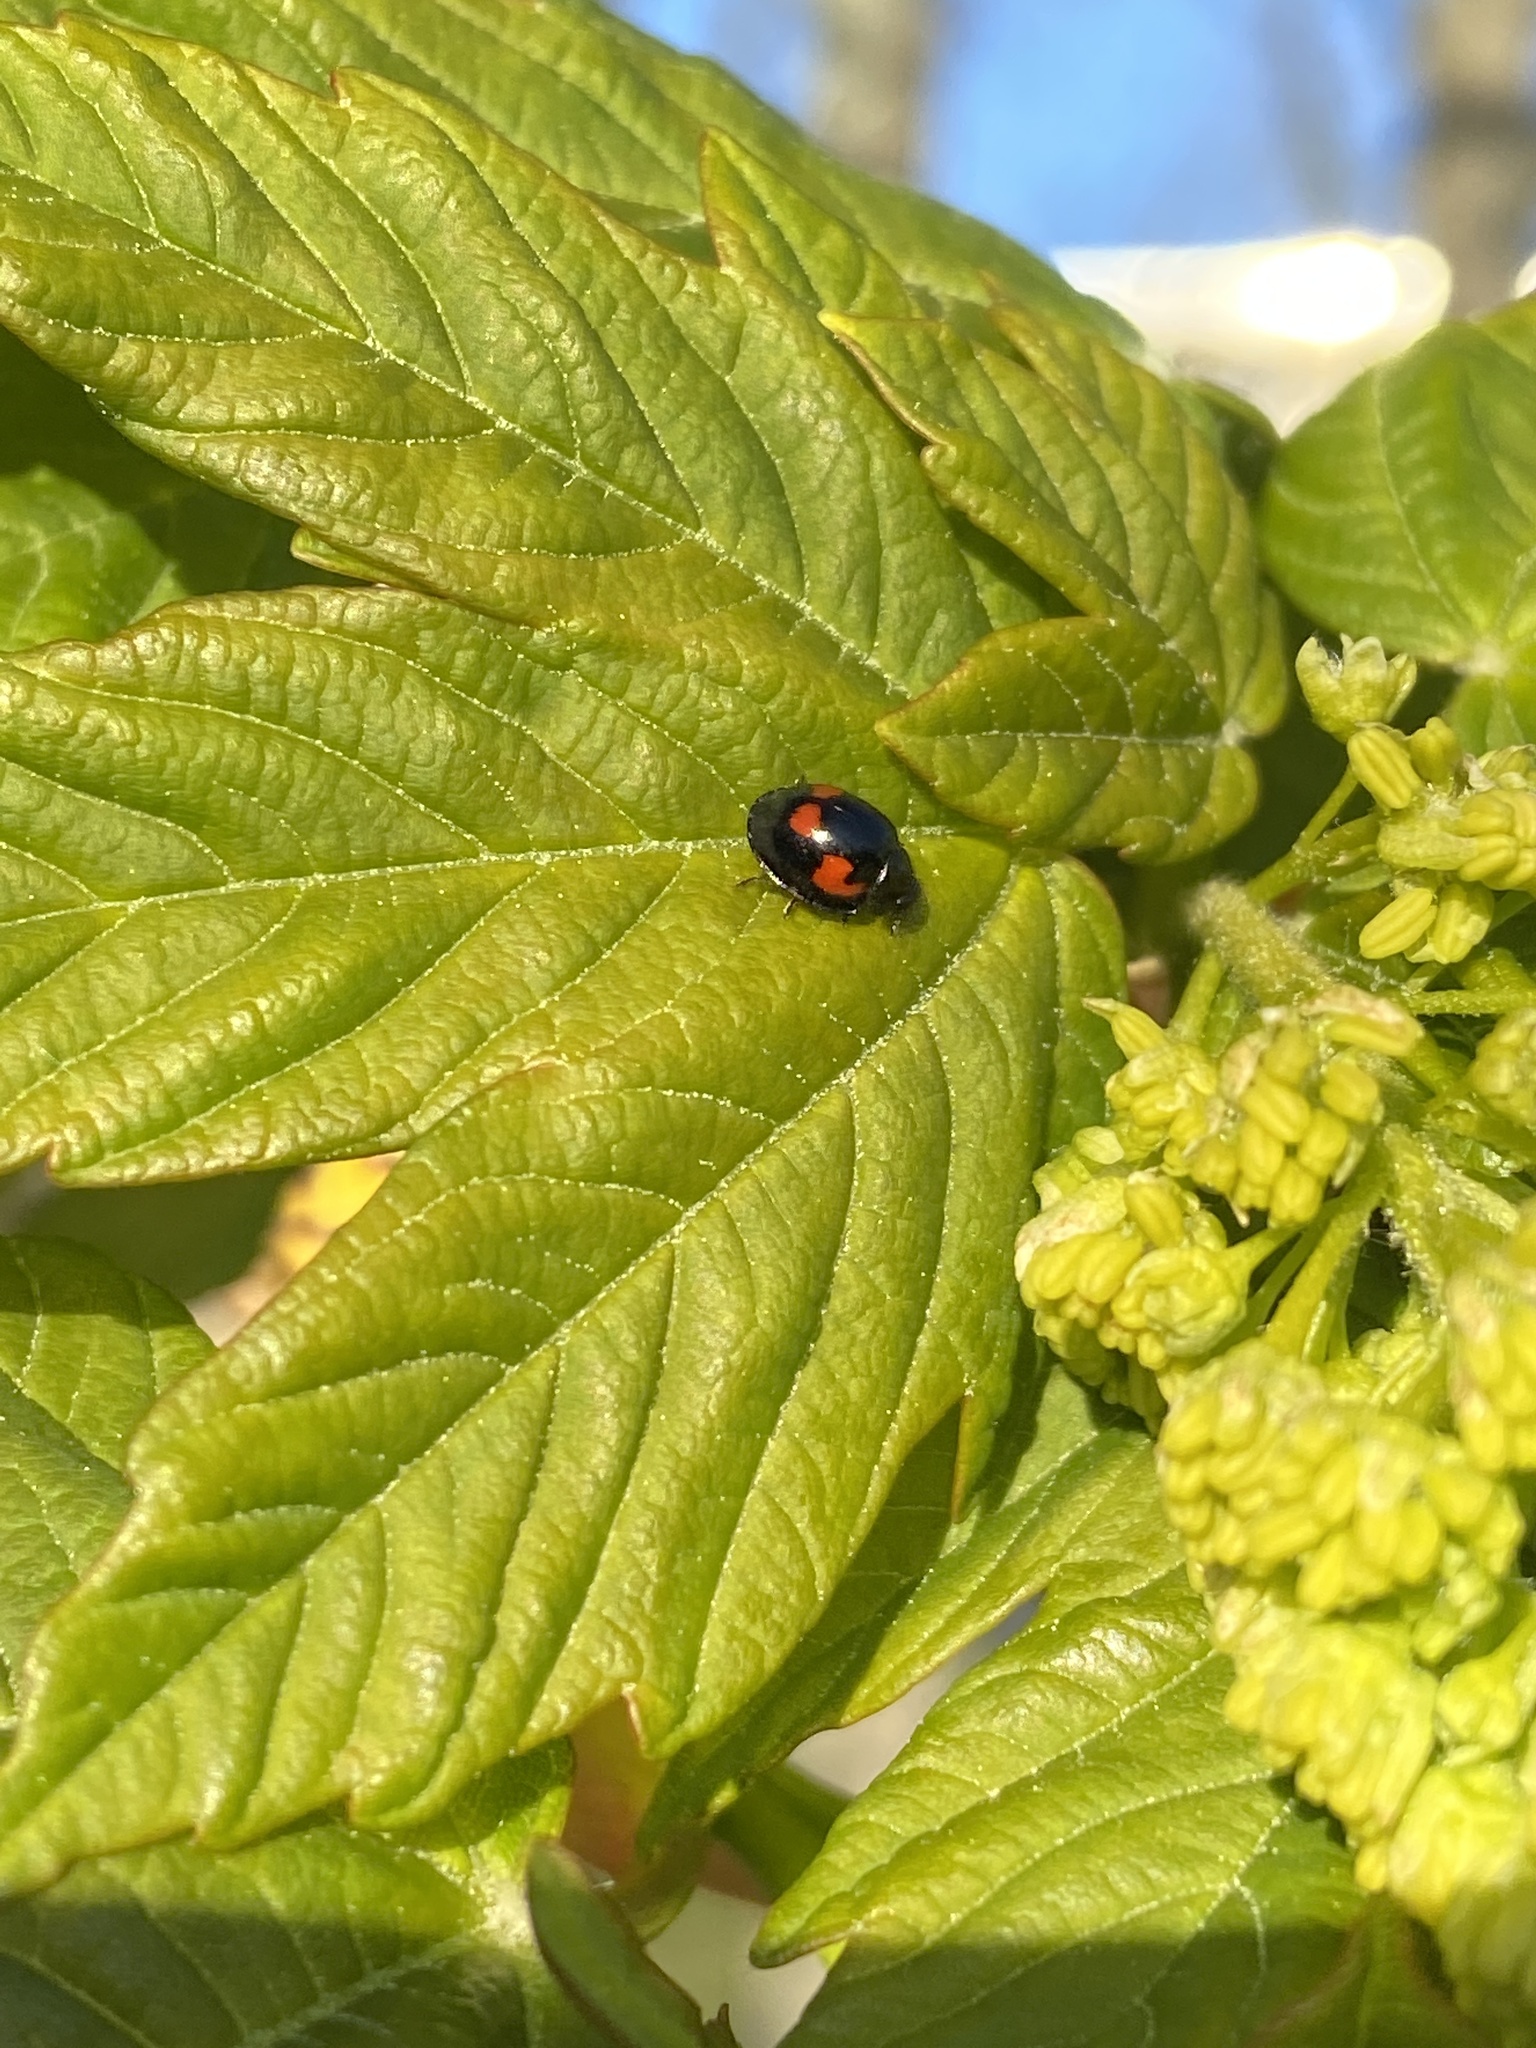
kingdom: Animalia
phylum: Arthropoda
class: Insecta
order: Coleoptera
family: Coccinellidae
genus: Brumus
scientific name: Brumus quadripustulatus
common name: Ladybird beetle
